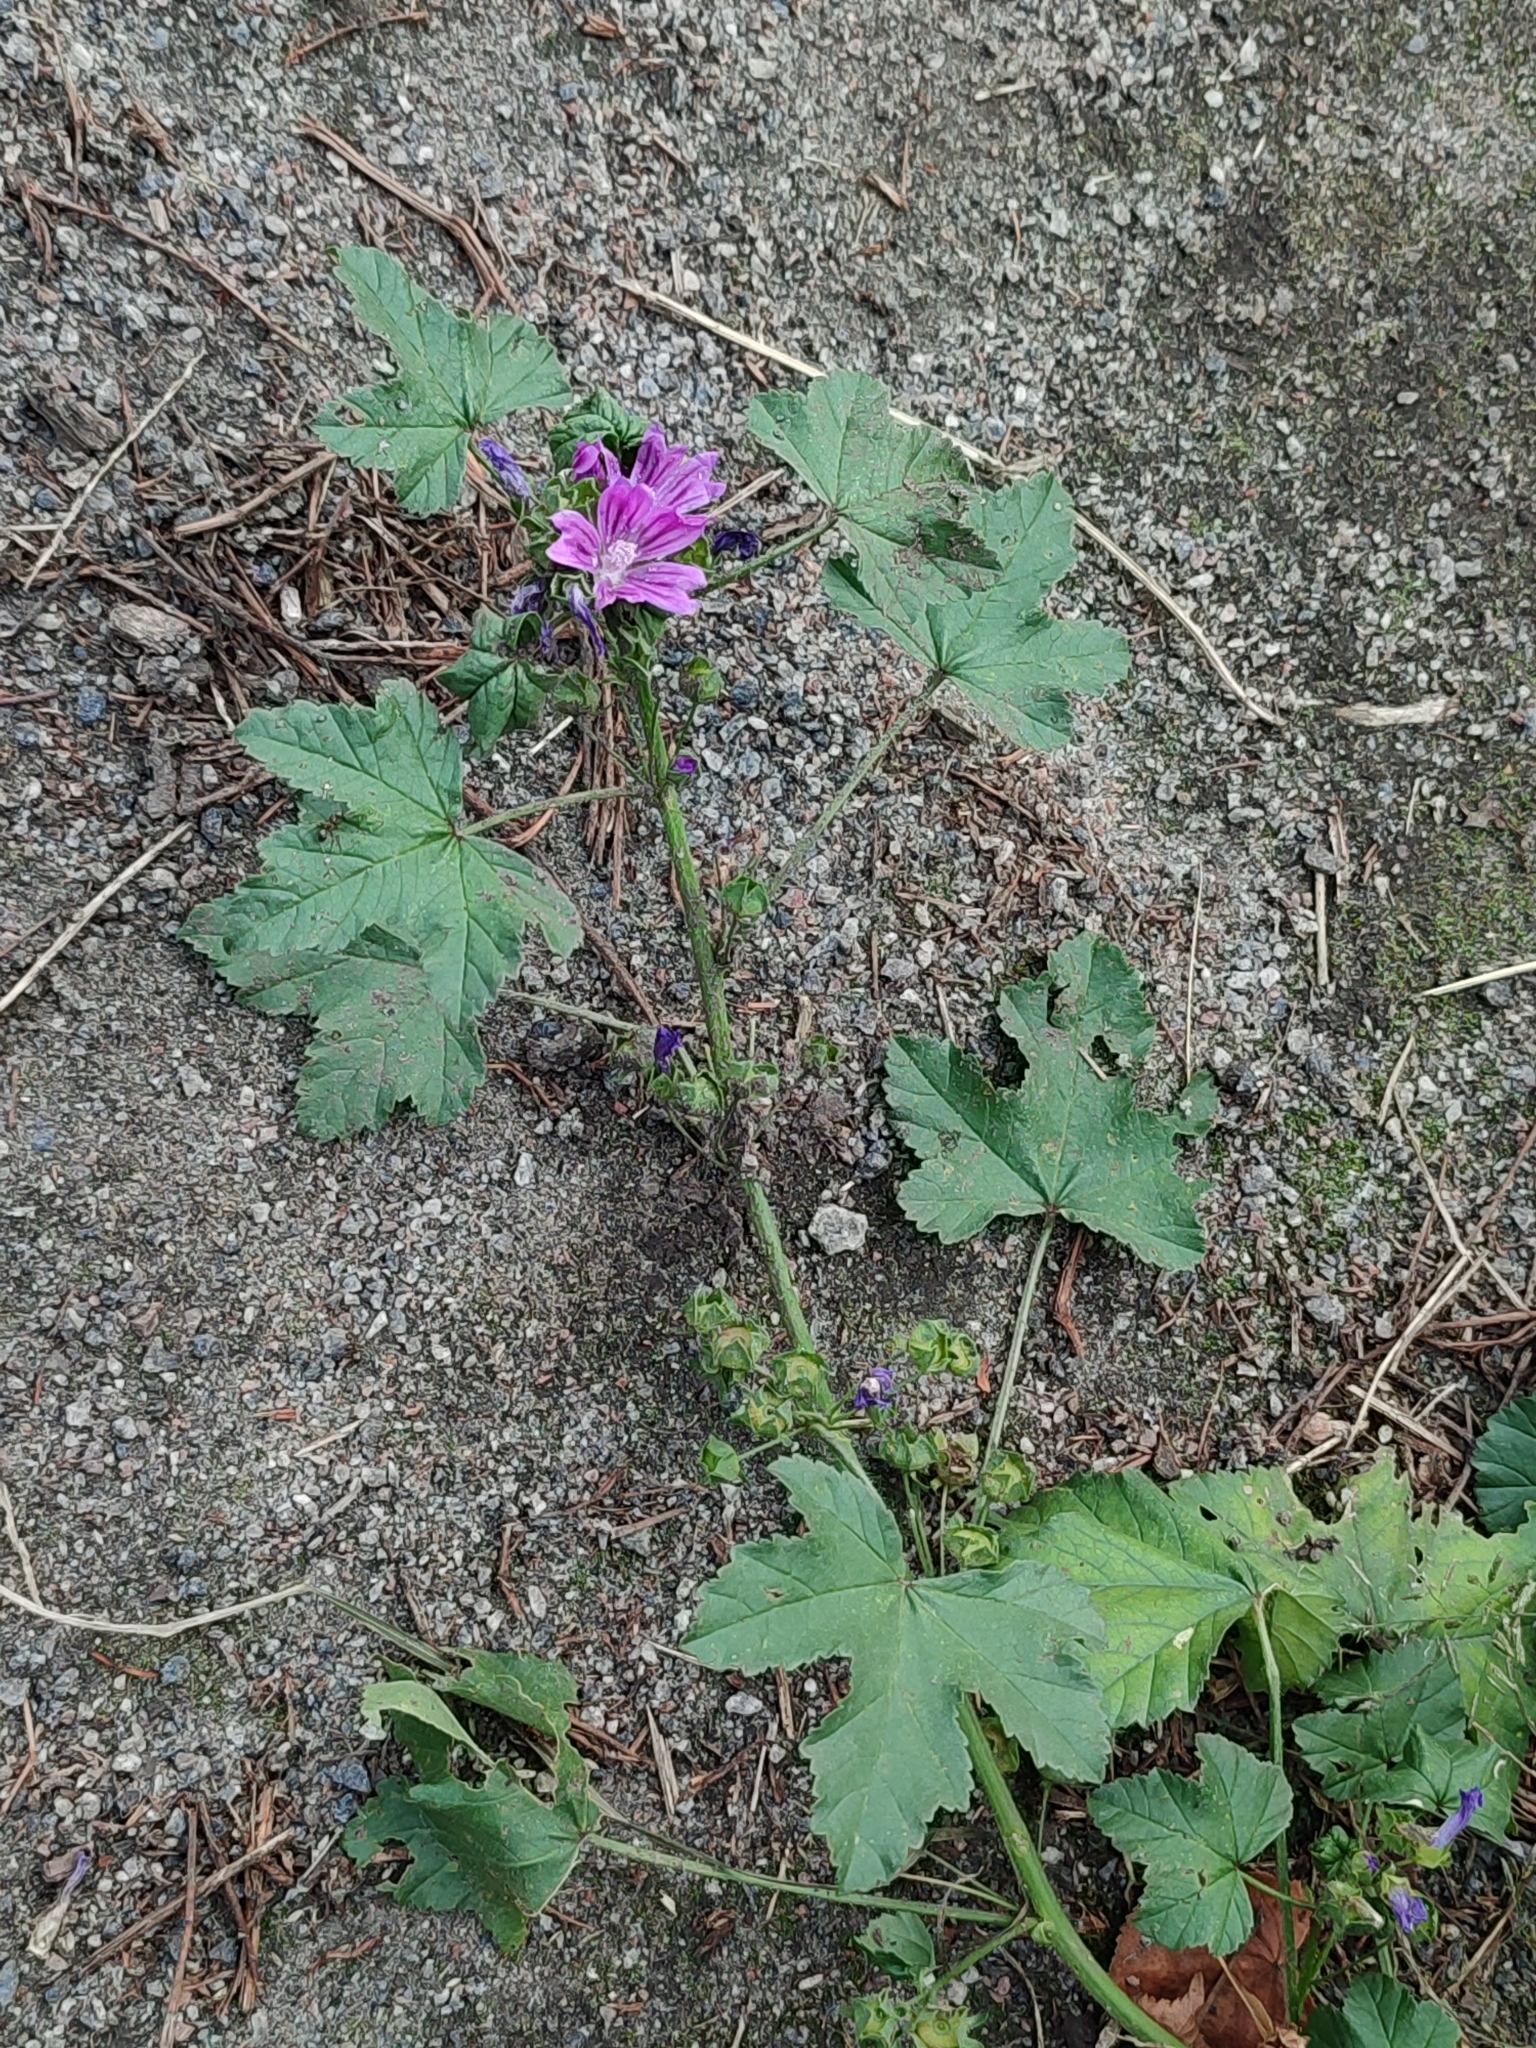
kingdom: Plantae
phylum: Tracheophyta
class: Magnoliopsida
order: Malvales
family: Malvaceae
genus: Malva
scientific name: Malva sylvestris
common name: Common mallow
